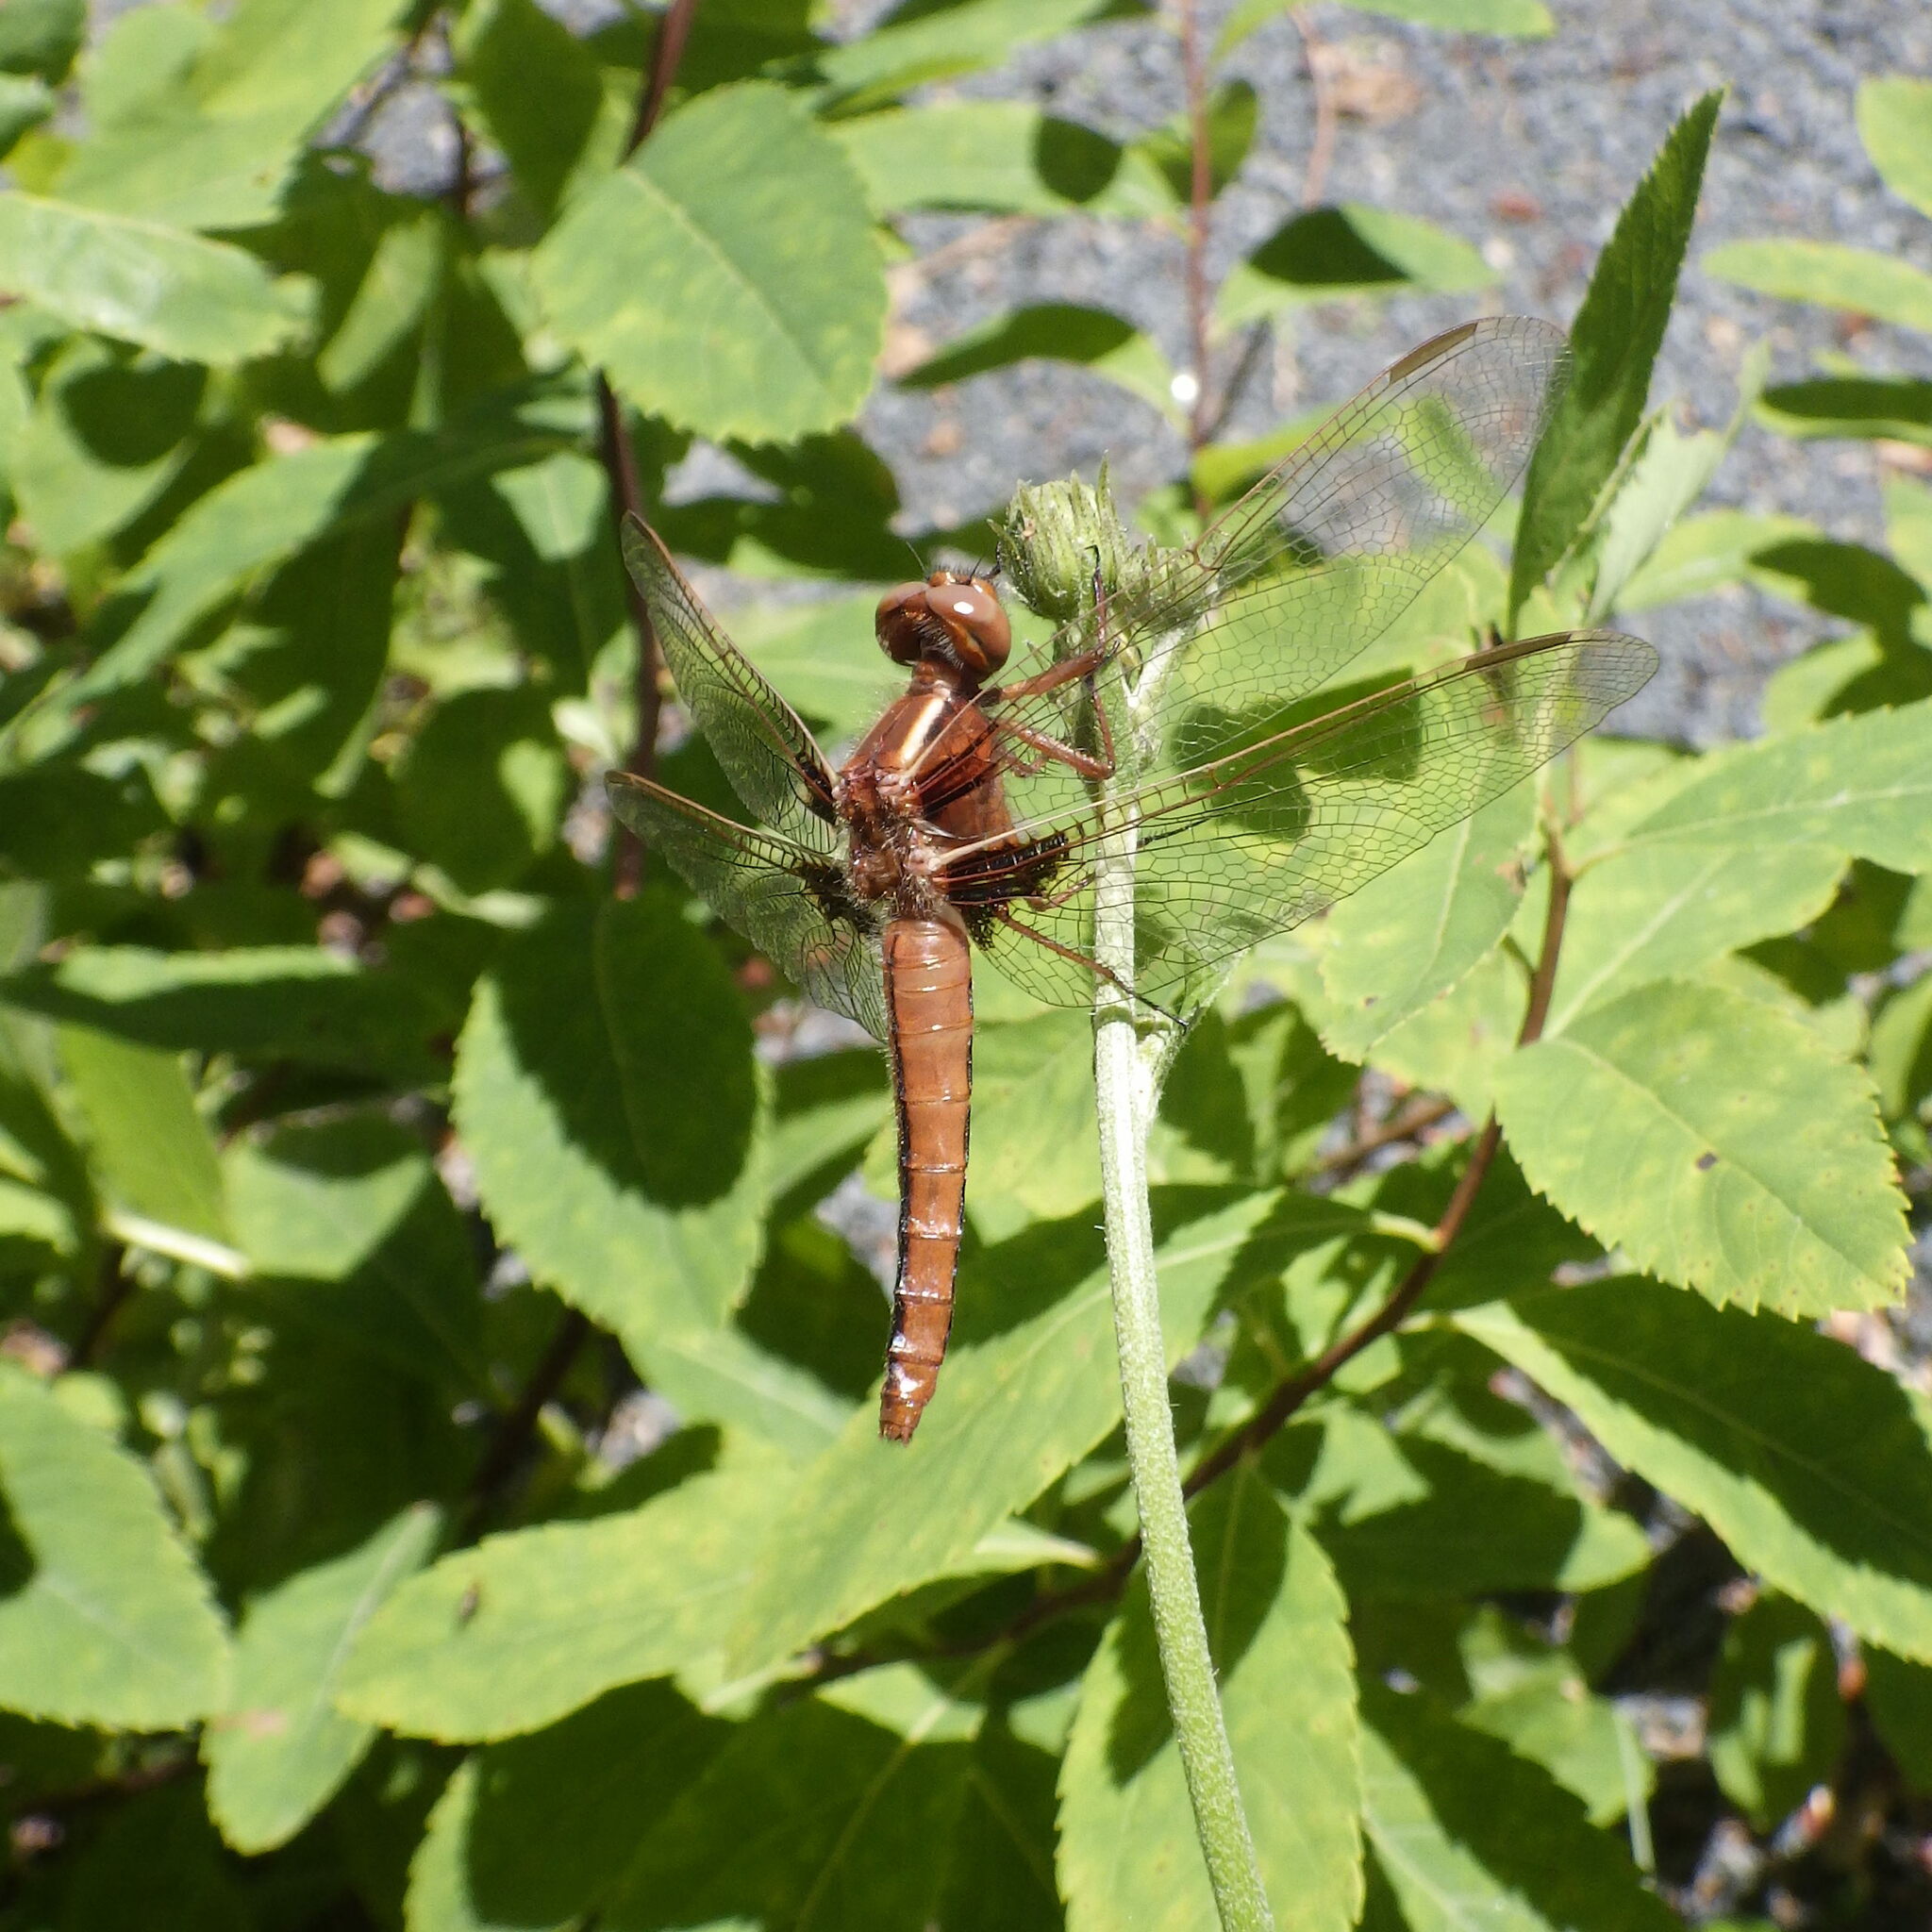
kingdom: Animalia
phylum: Arthropoda
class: Insecta
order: Odonata
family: Libellulidae
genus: Ladona
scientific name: Ladona julia
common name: Chalk-fronted corporal
